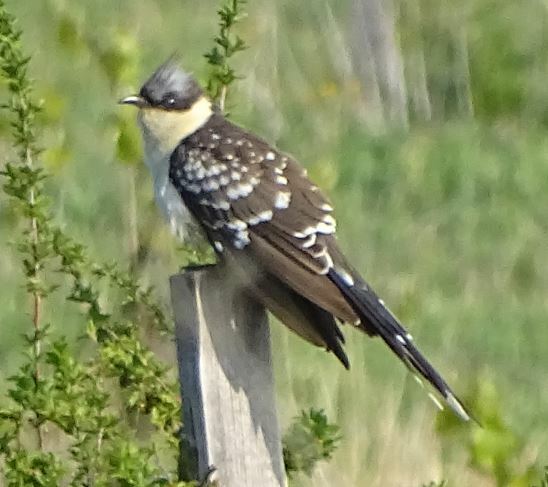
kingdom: Animalia
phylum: Chordata
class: Aves
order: Cuculiformes
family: Cuculidae
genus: Clamator
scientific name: Clamator glandarius
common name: Great spotted cuckoo
